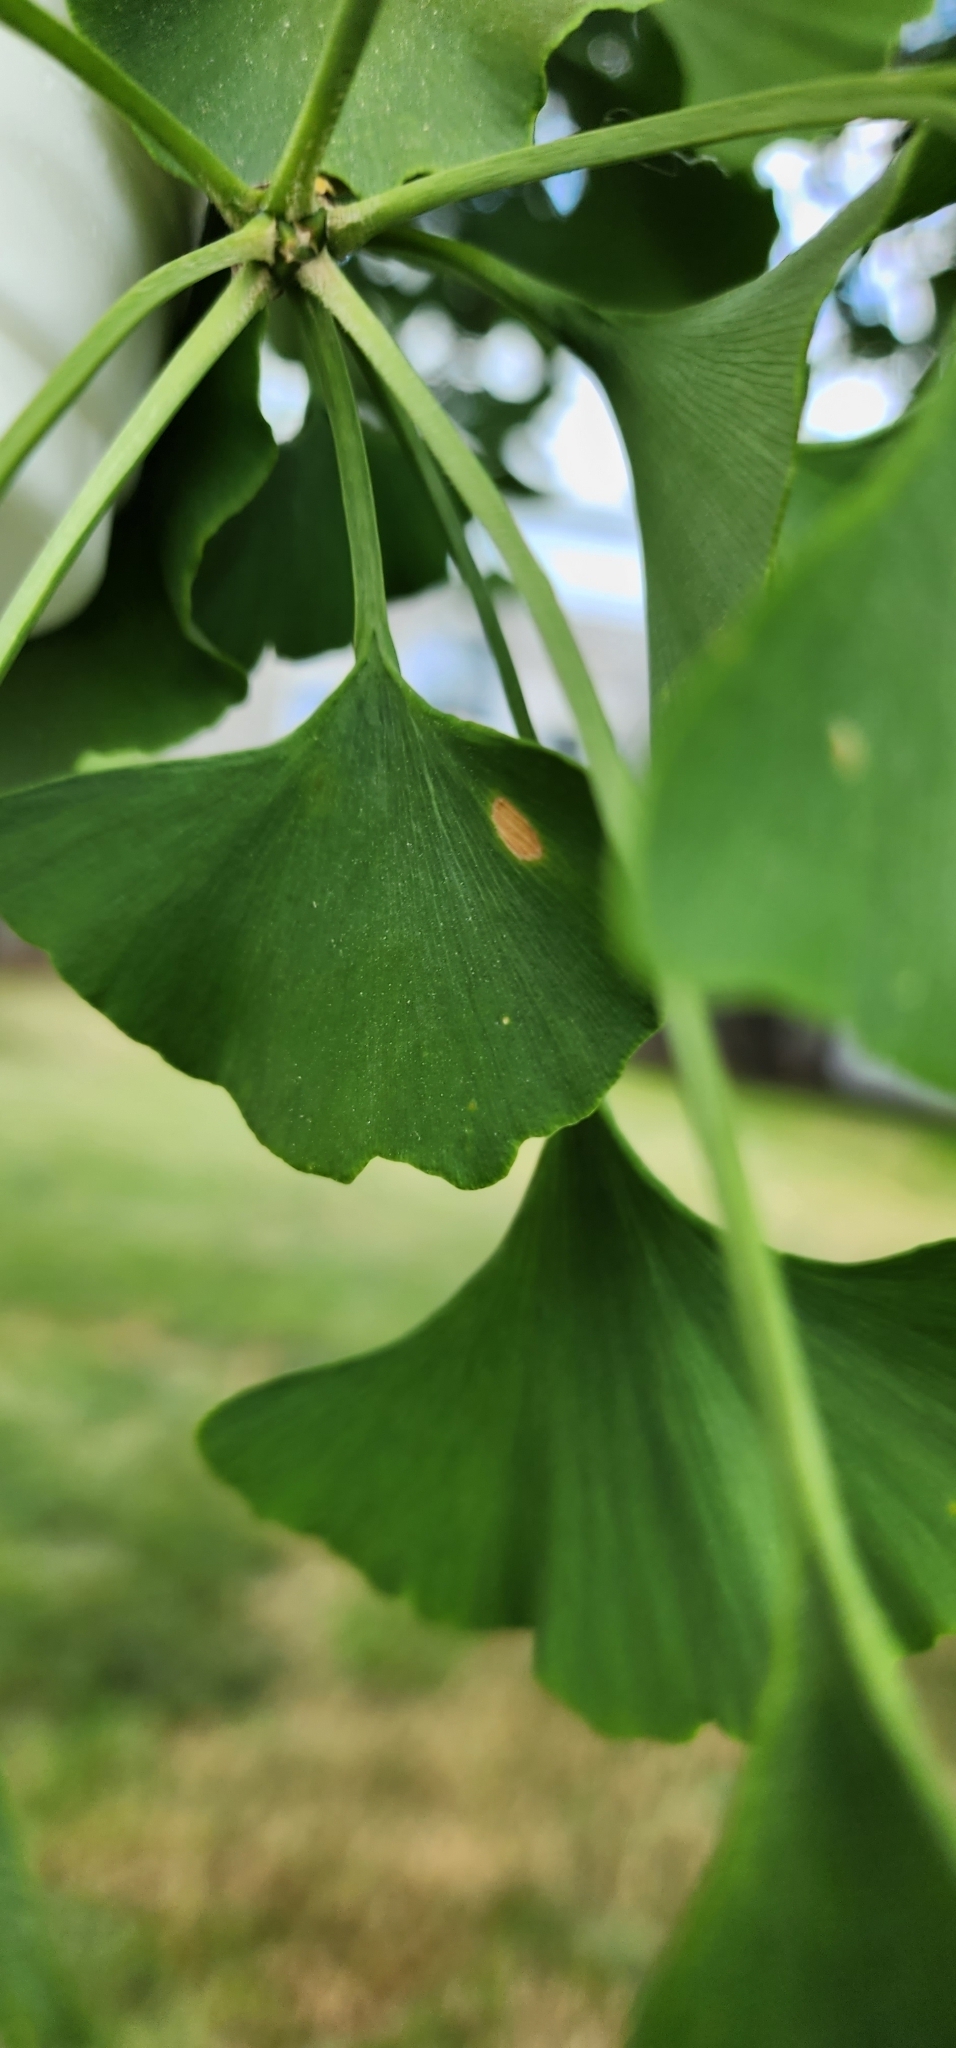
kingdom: Fungi
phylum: Basidiomycota
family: Bartheletiaceae
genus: Bartheletia
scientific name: Bartheletia paradoxa
